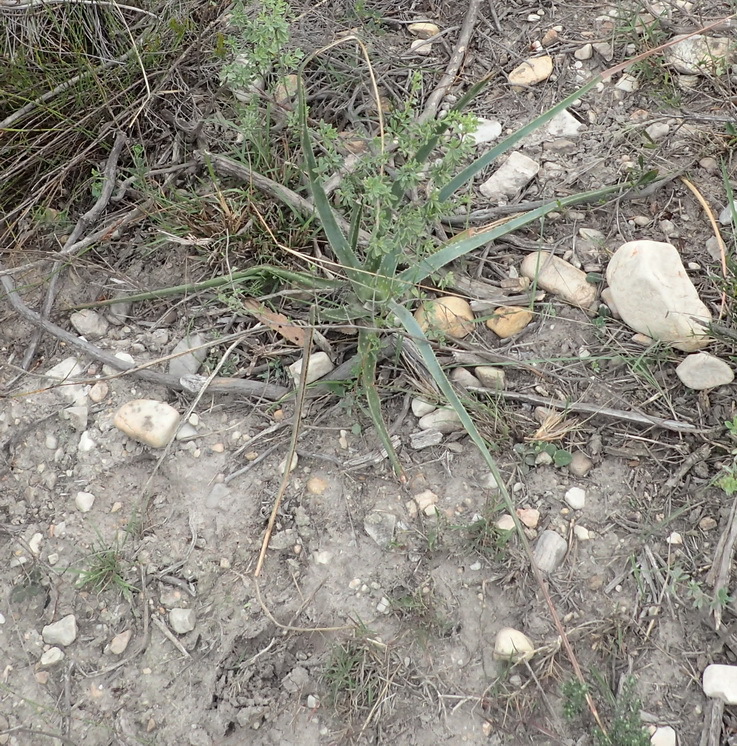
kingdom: Plantae
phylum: Tracheophyta
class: Liliopsida
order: Asparagales
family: Asphodelaceae
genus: Aloe
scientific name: Aloe micracantha
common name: Fynbos grass aloe
